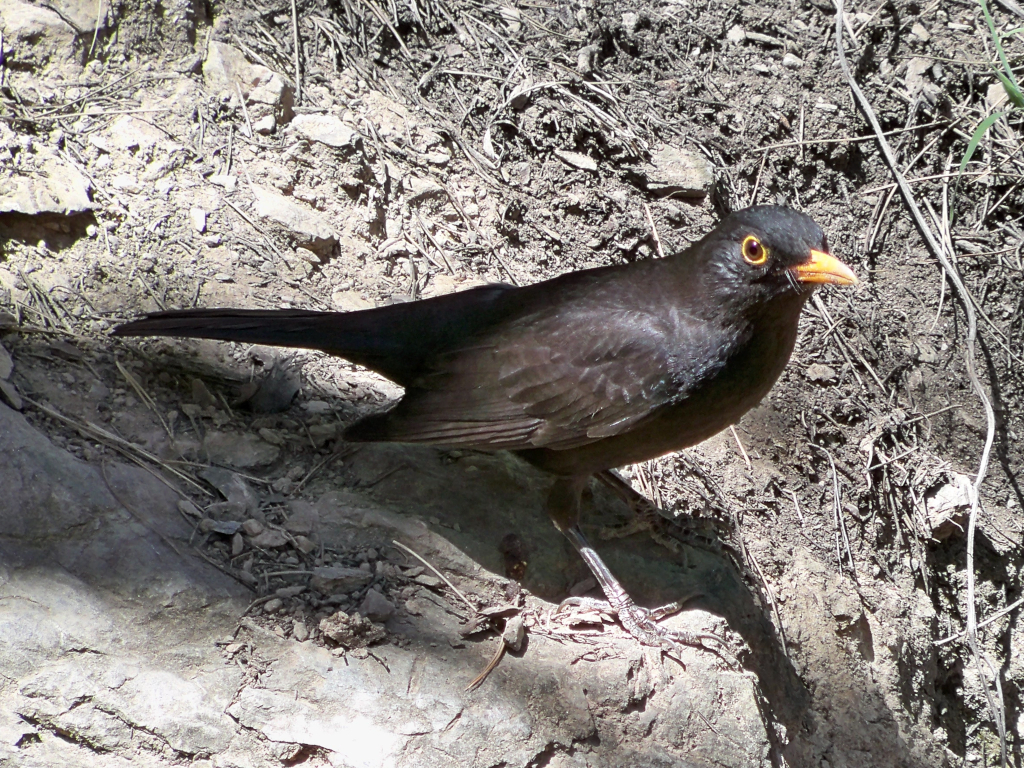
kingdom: Animalia
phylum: Chordata
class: Aves
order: Passeriformes
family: Turdidae
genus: Turdus
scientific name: Turdus merula
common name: Common blackbird
